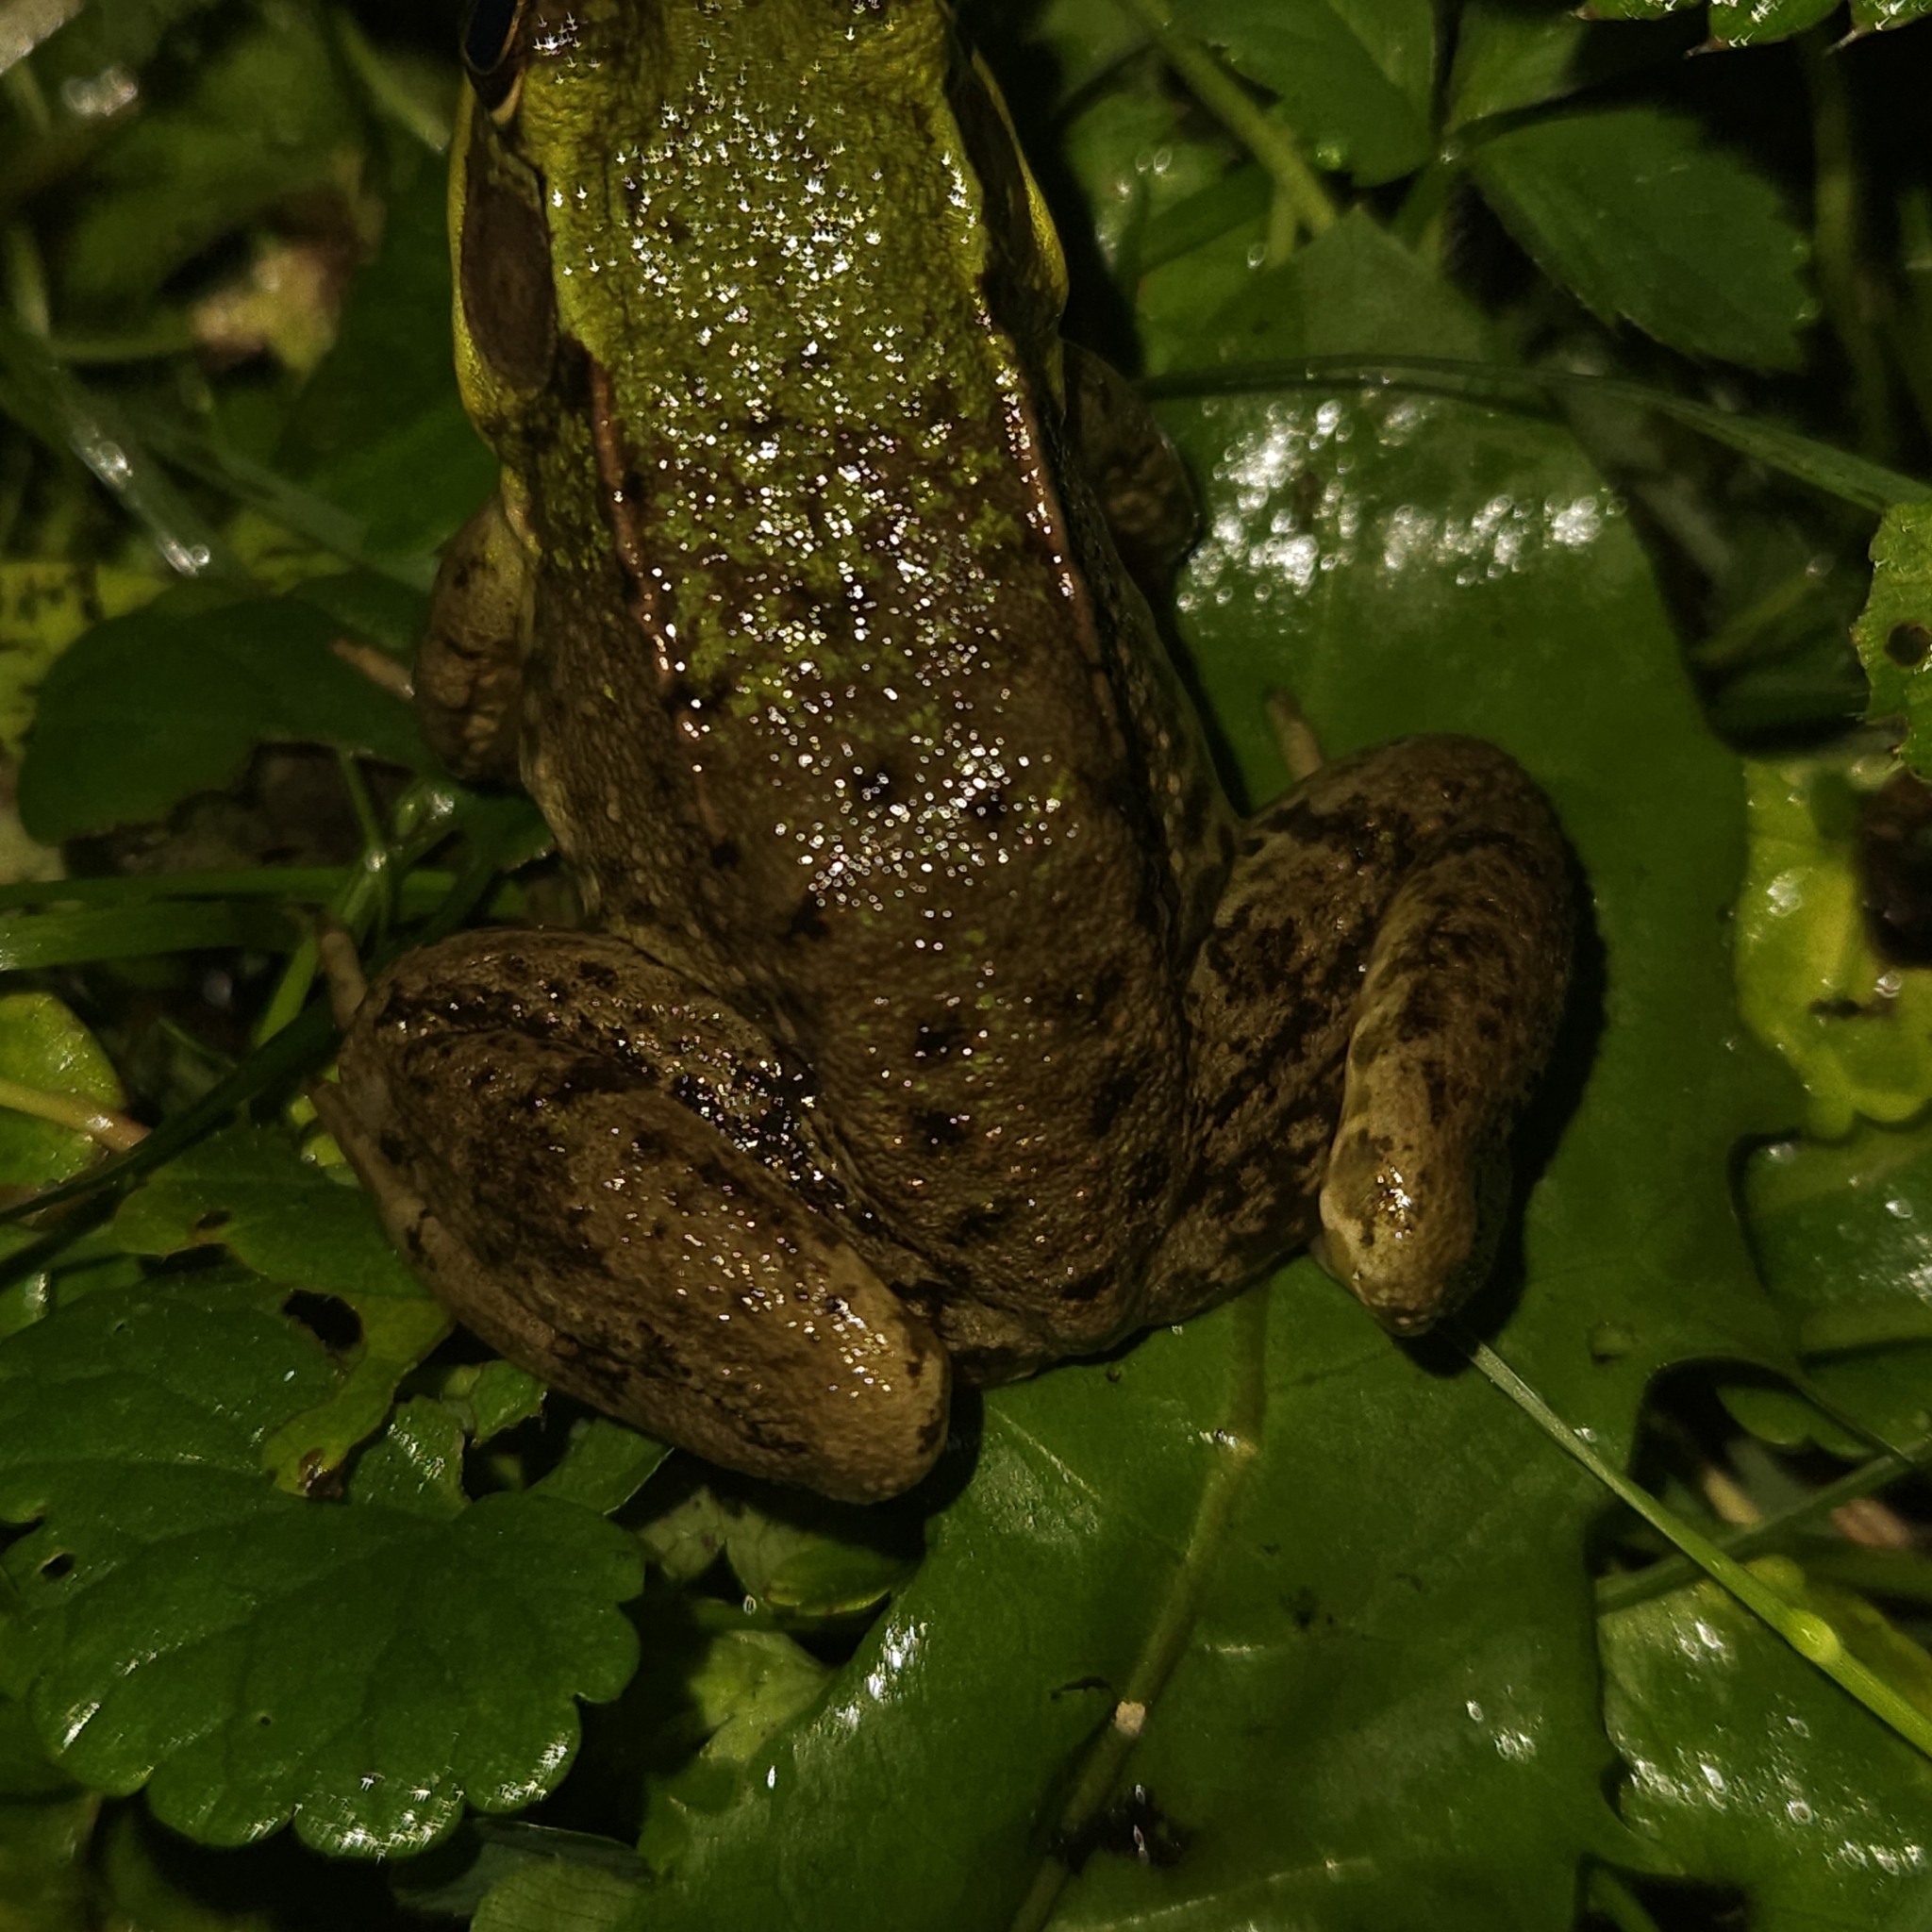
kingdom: Animalia
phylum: Chordata
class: Amphibia
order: Anura
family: Ranidae
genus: Lithobates
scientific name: Lithobates clamitans
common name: Green frog
